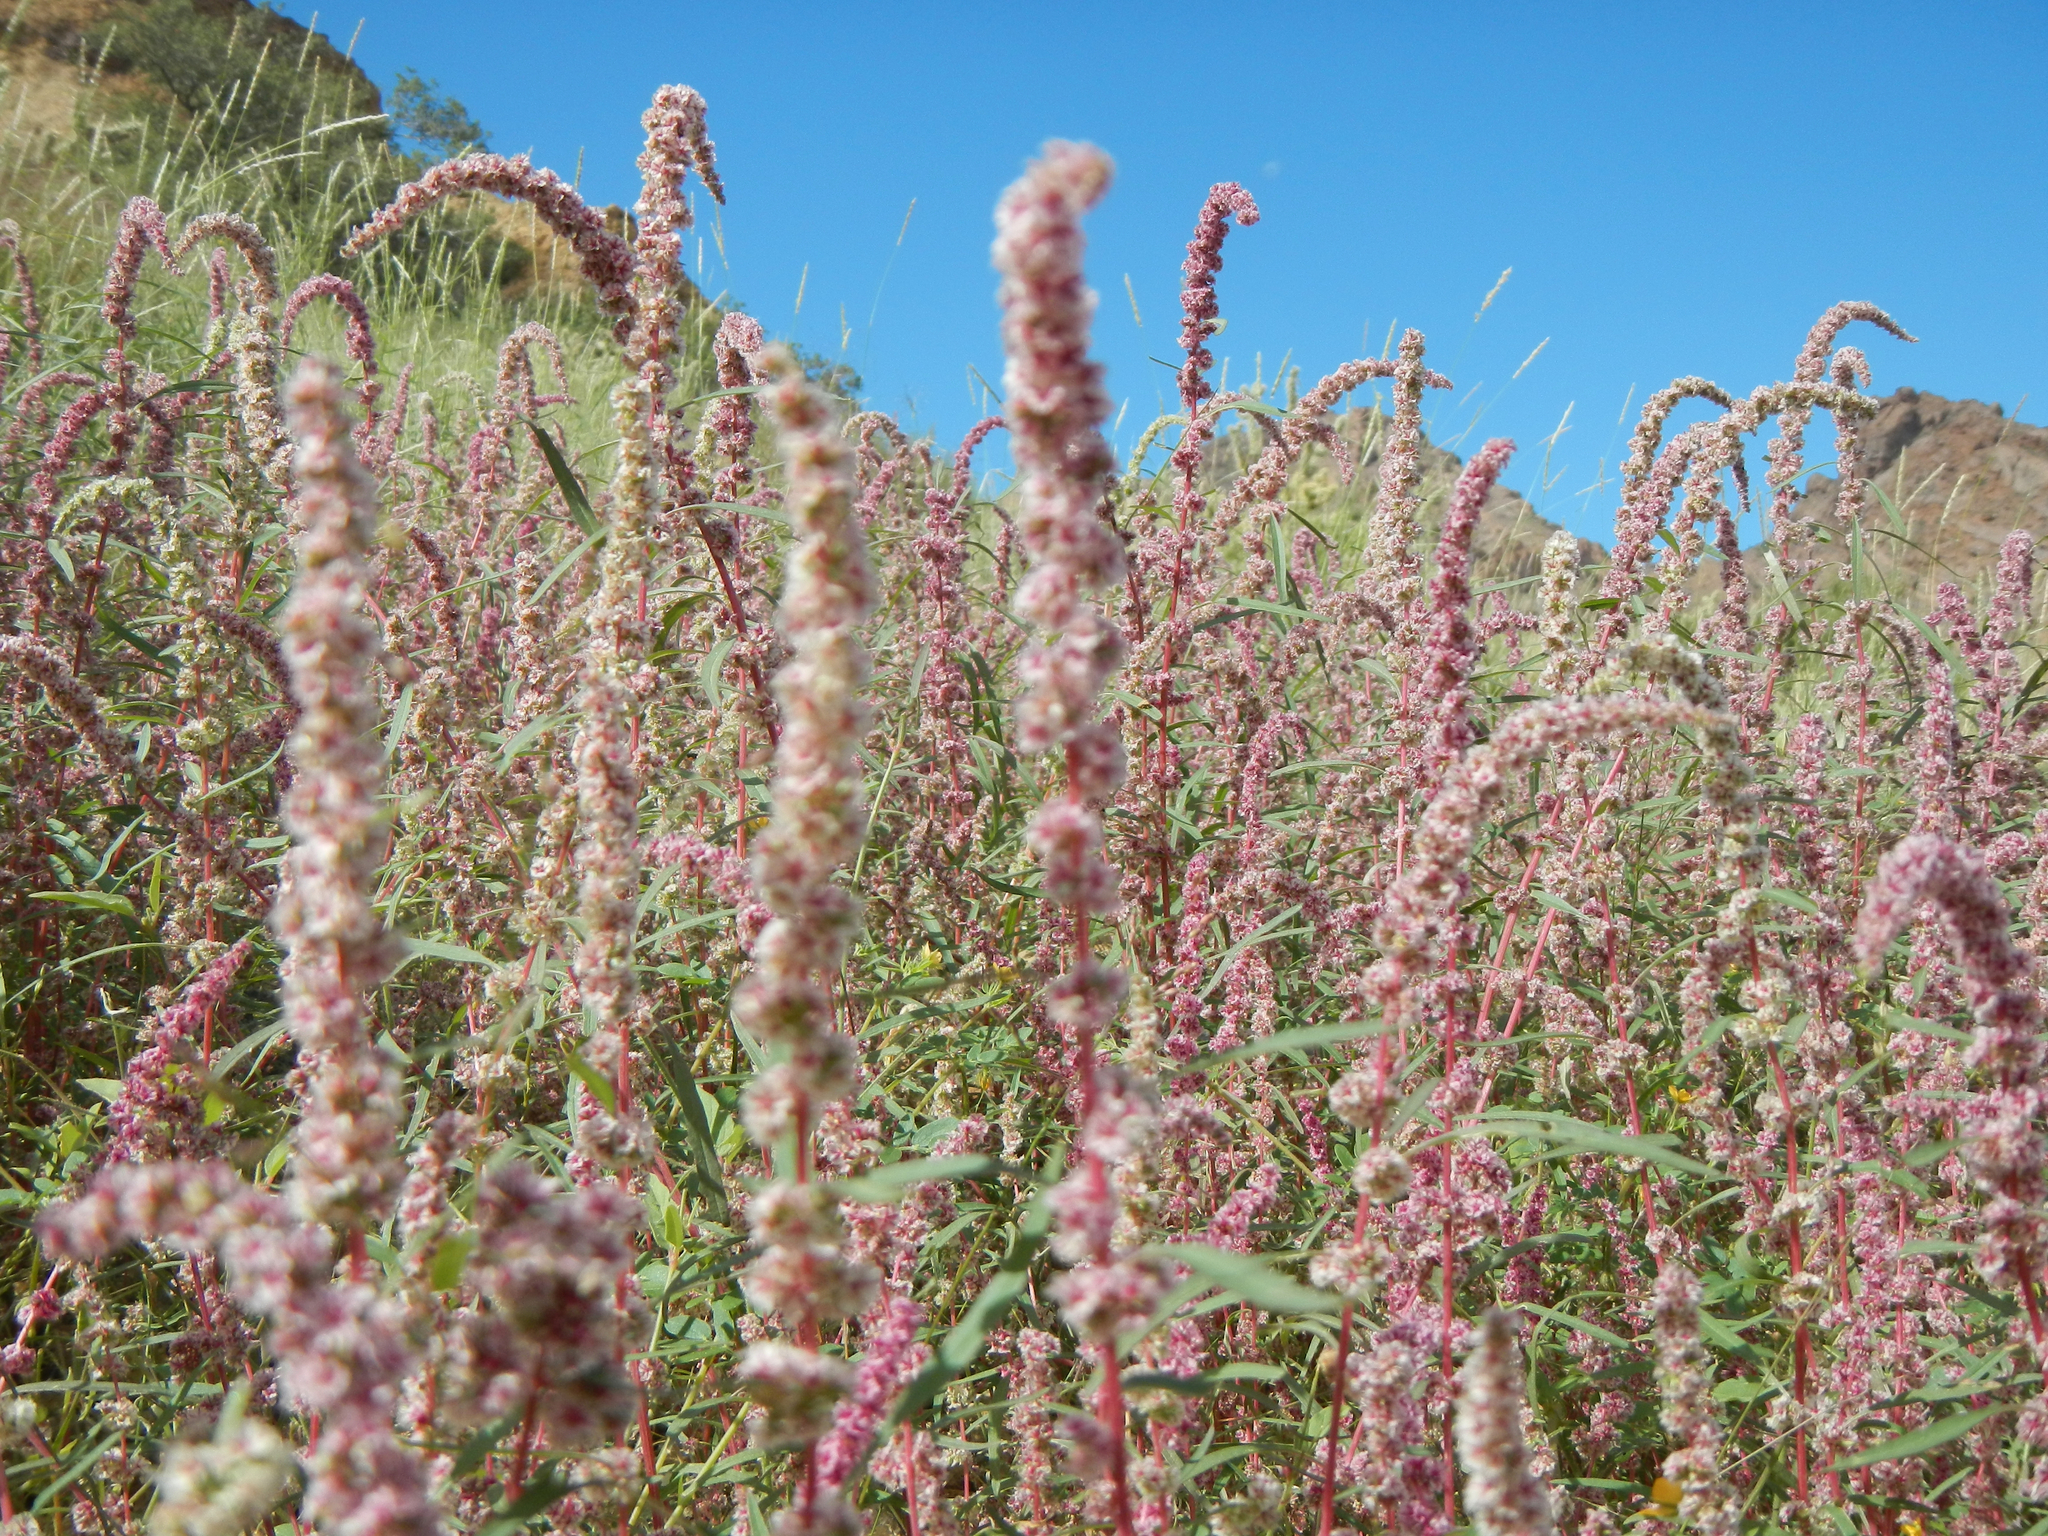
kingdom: Plantae
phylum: Tracheophyta
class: Magnoliopsida
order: Caryophyllales
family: Amaranthaceae
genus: Amaranthus
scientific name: Amaranthus fimbriatus
